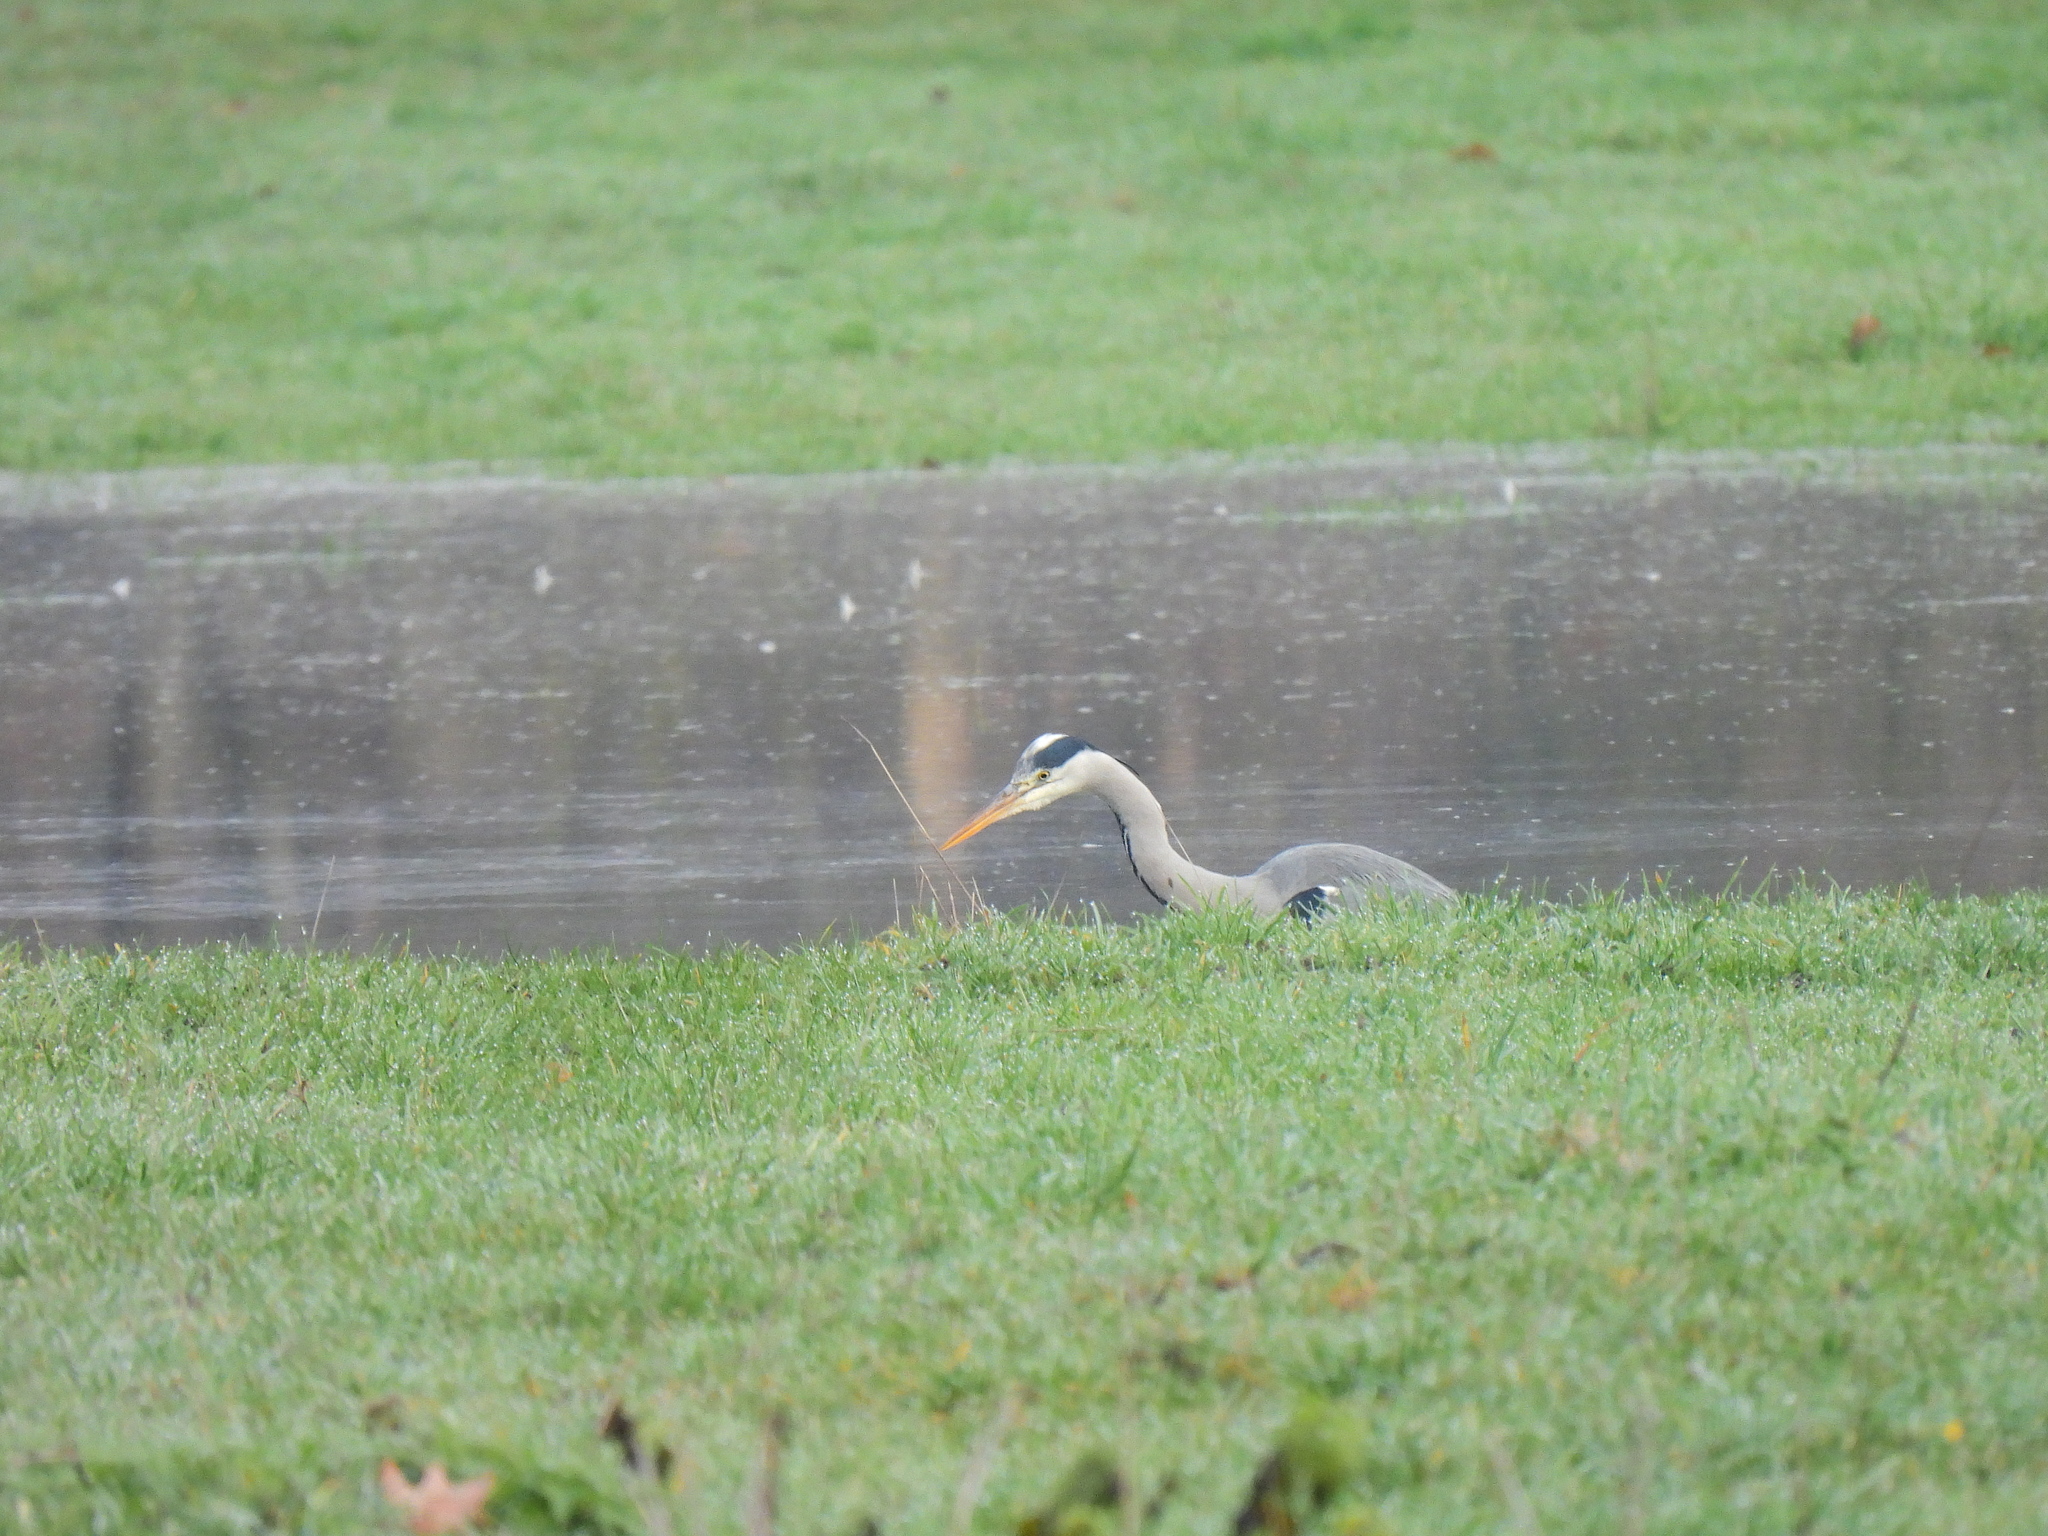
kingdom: Animalia
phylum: Chordata
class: Aves
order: Pelecaniformes
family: Ardeidae
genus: Ardea
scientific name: Ardea cinerea
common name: Grey heron
